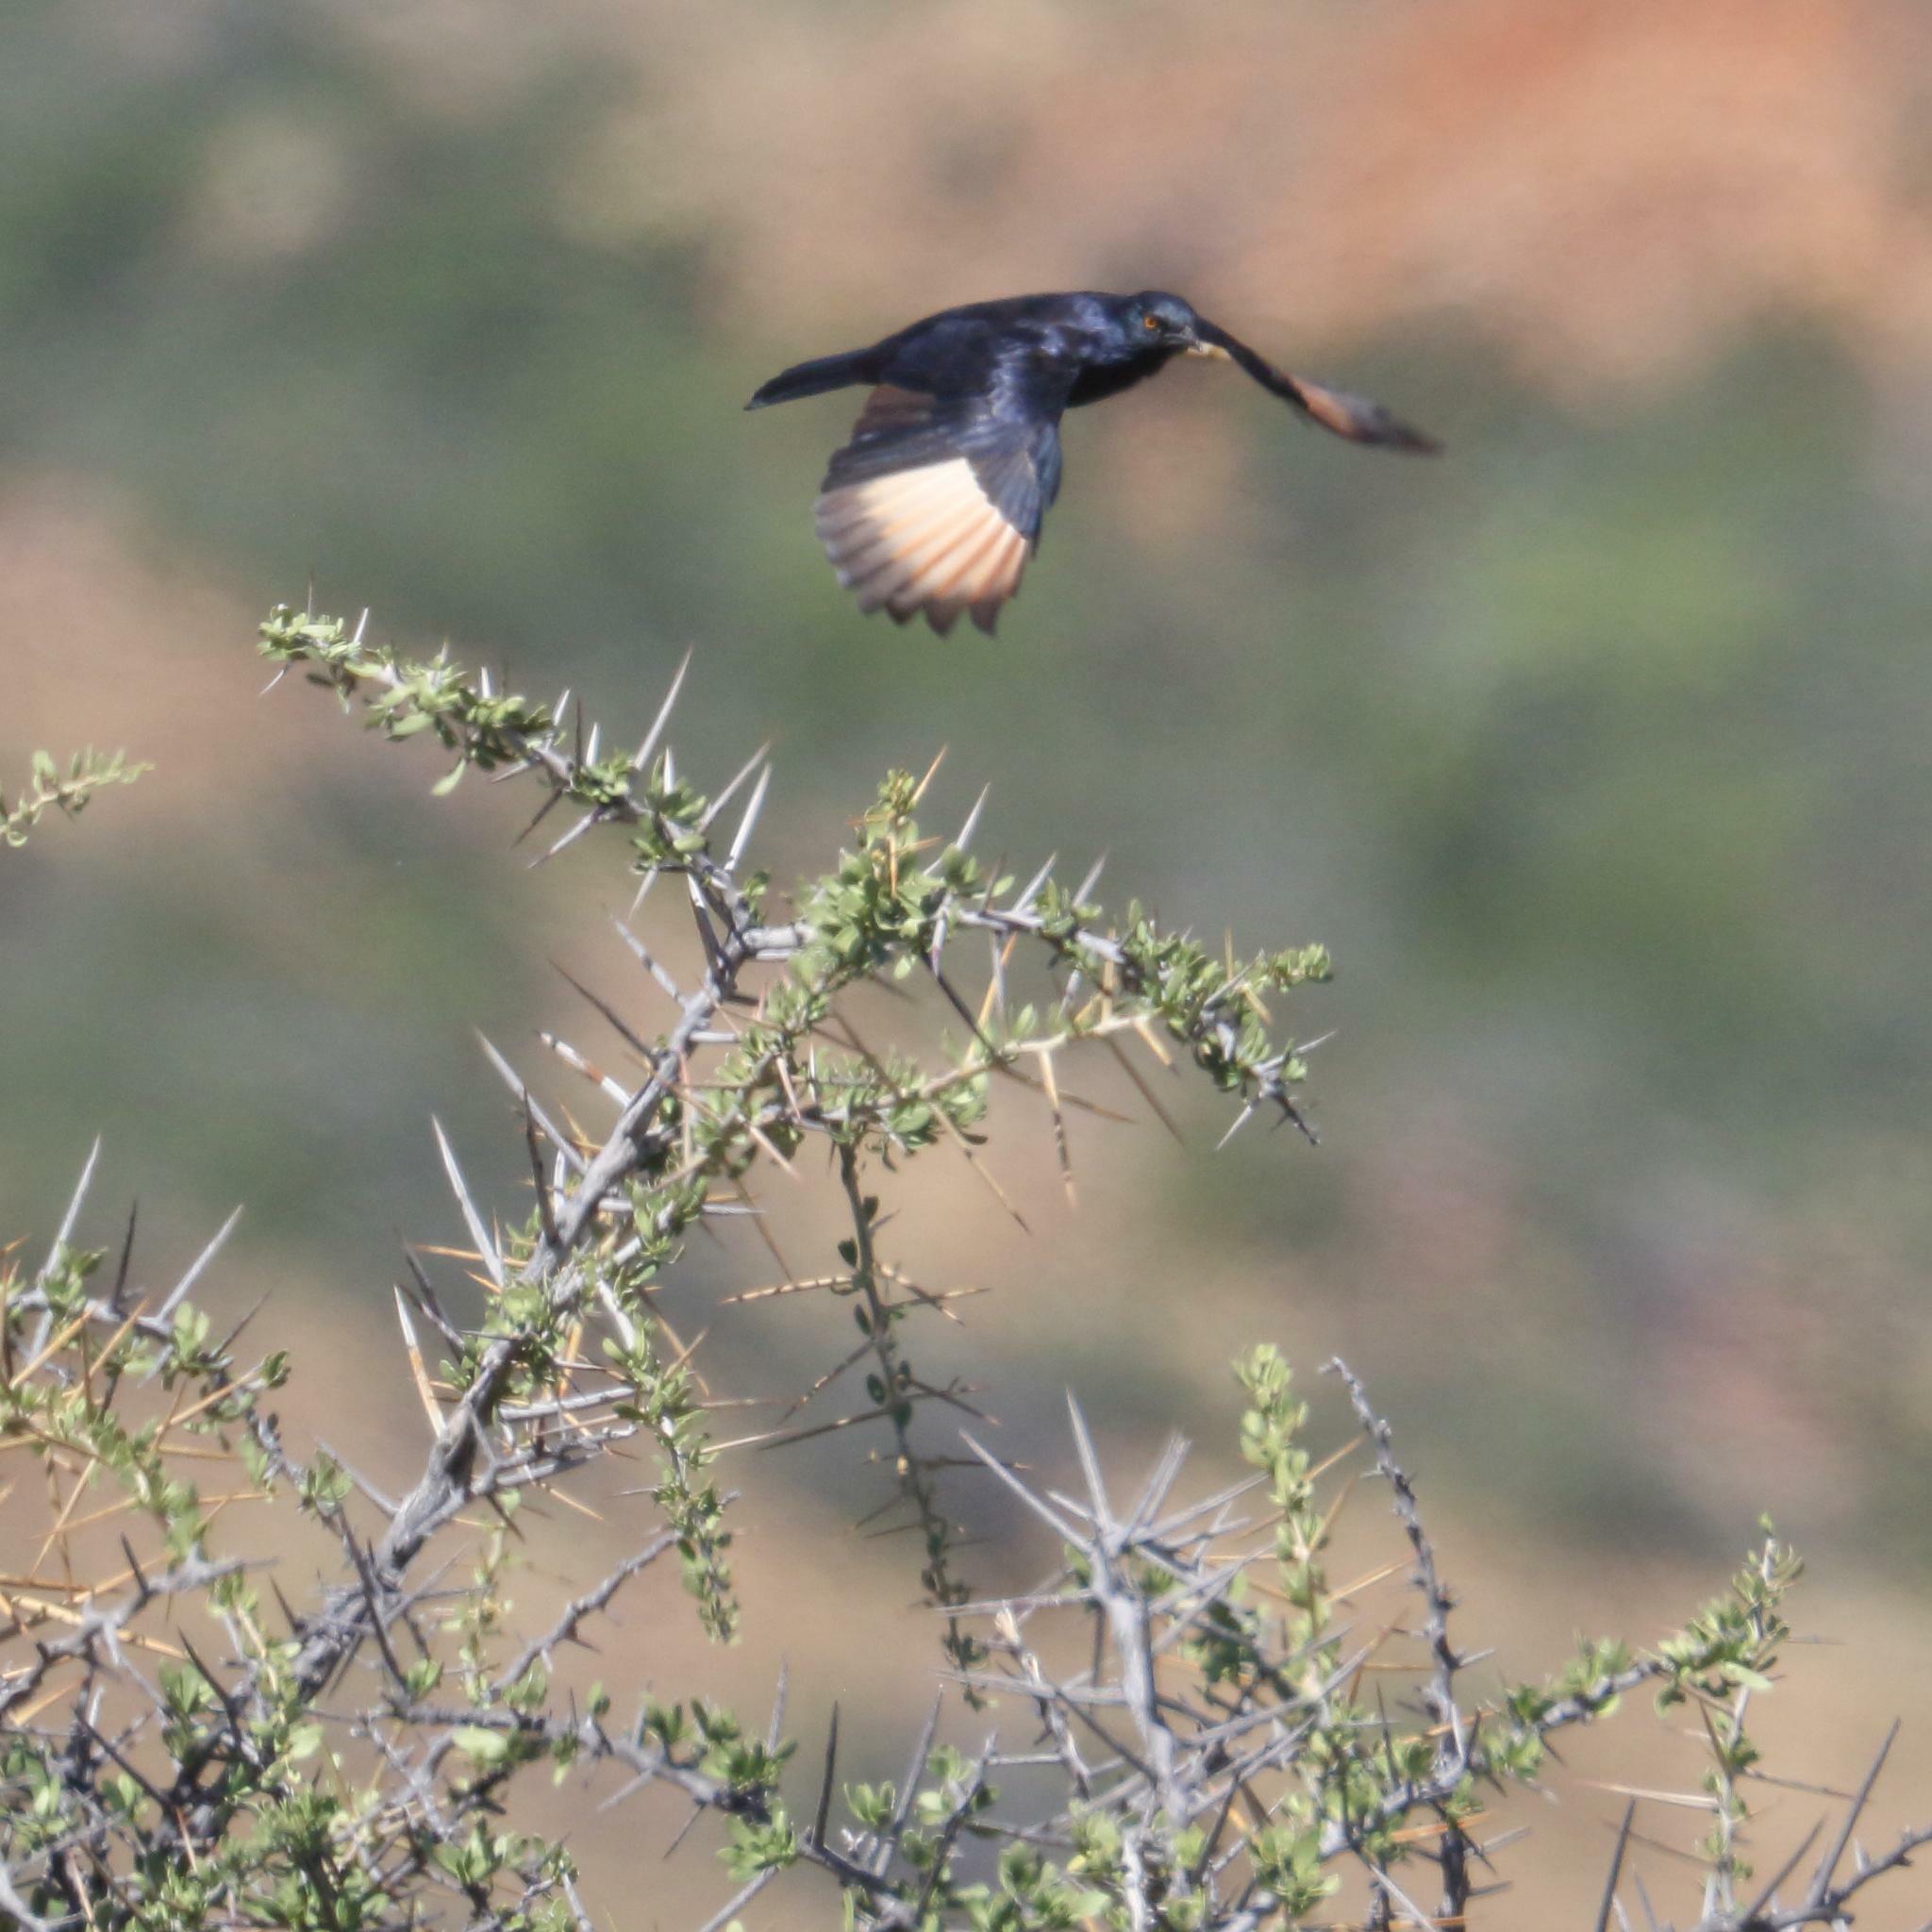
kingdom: Animalia
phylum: Chordata
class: Aves
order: Passeriformes
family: Sturnidae
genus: Onychognathus
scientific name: Onychognathus nabouroup
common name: Pale-winged starling
